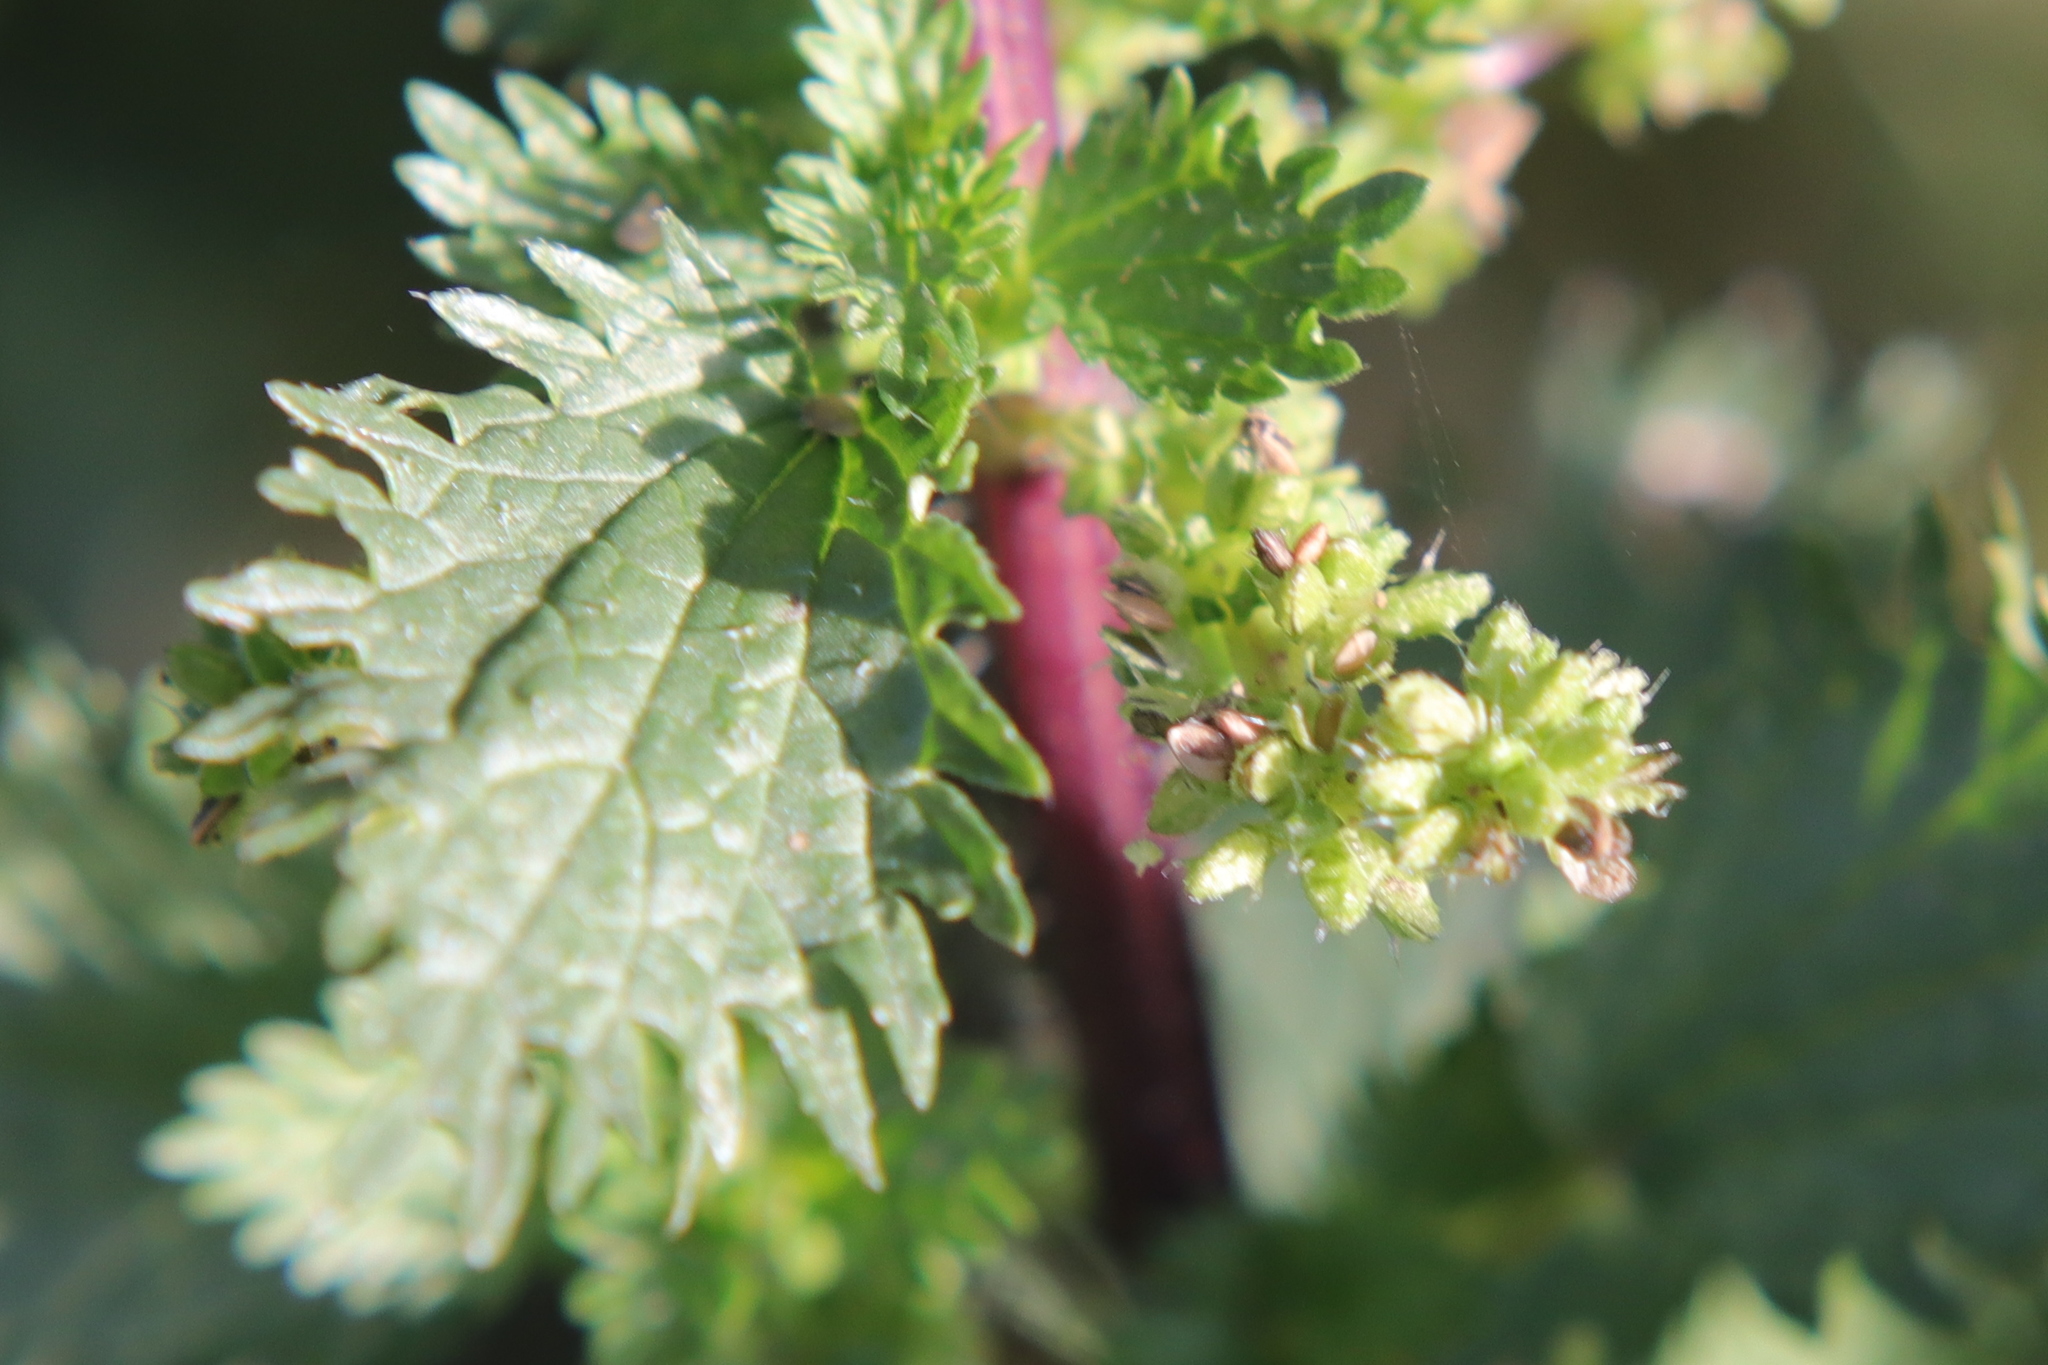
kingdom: Plantae
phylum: Tracheophyta
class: Magnoliopsida
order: Rosales
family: Urticaceae
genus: Urtica
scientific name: Urtica urens
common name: Dwarf nettle
